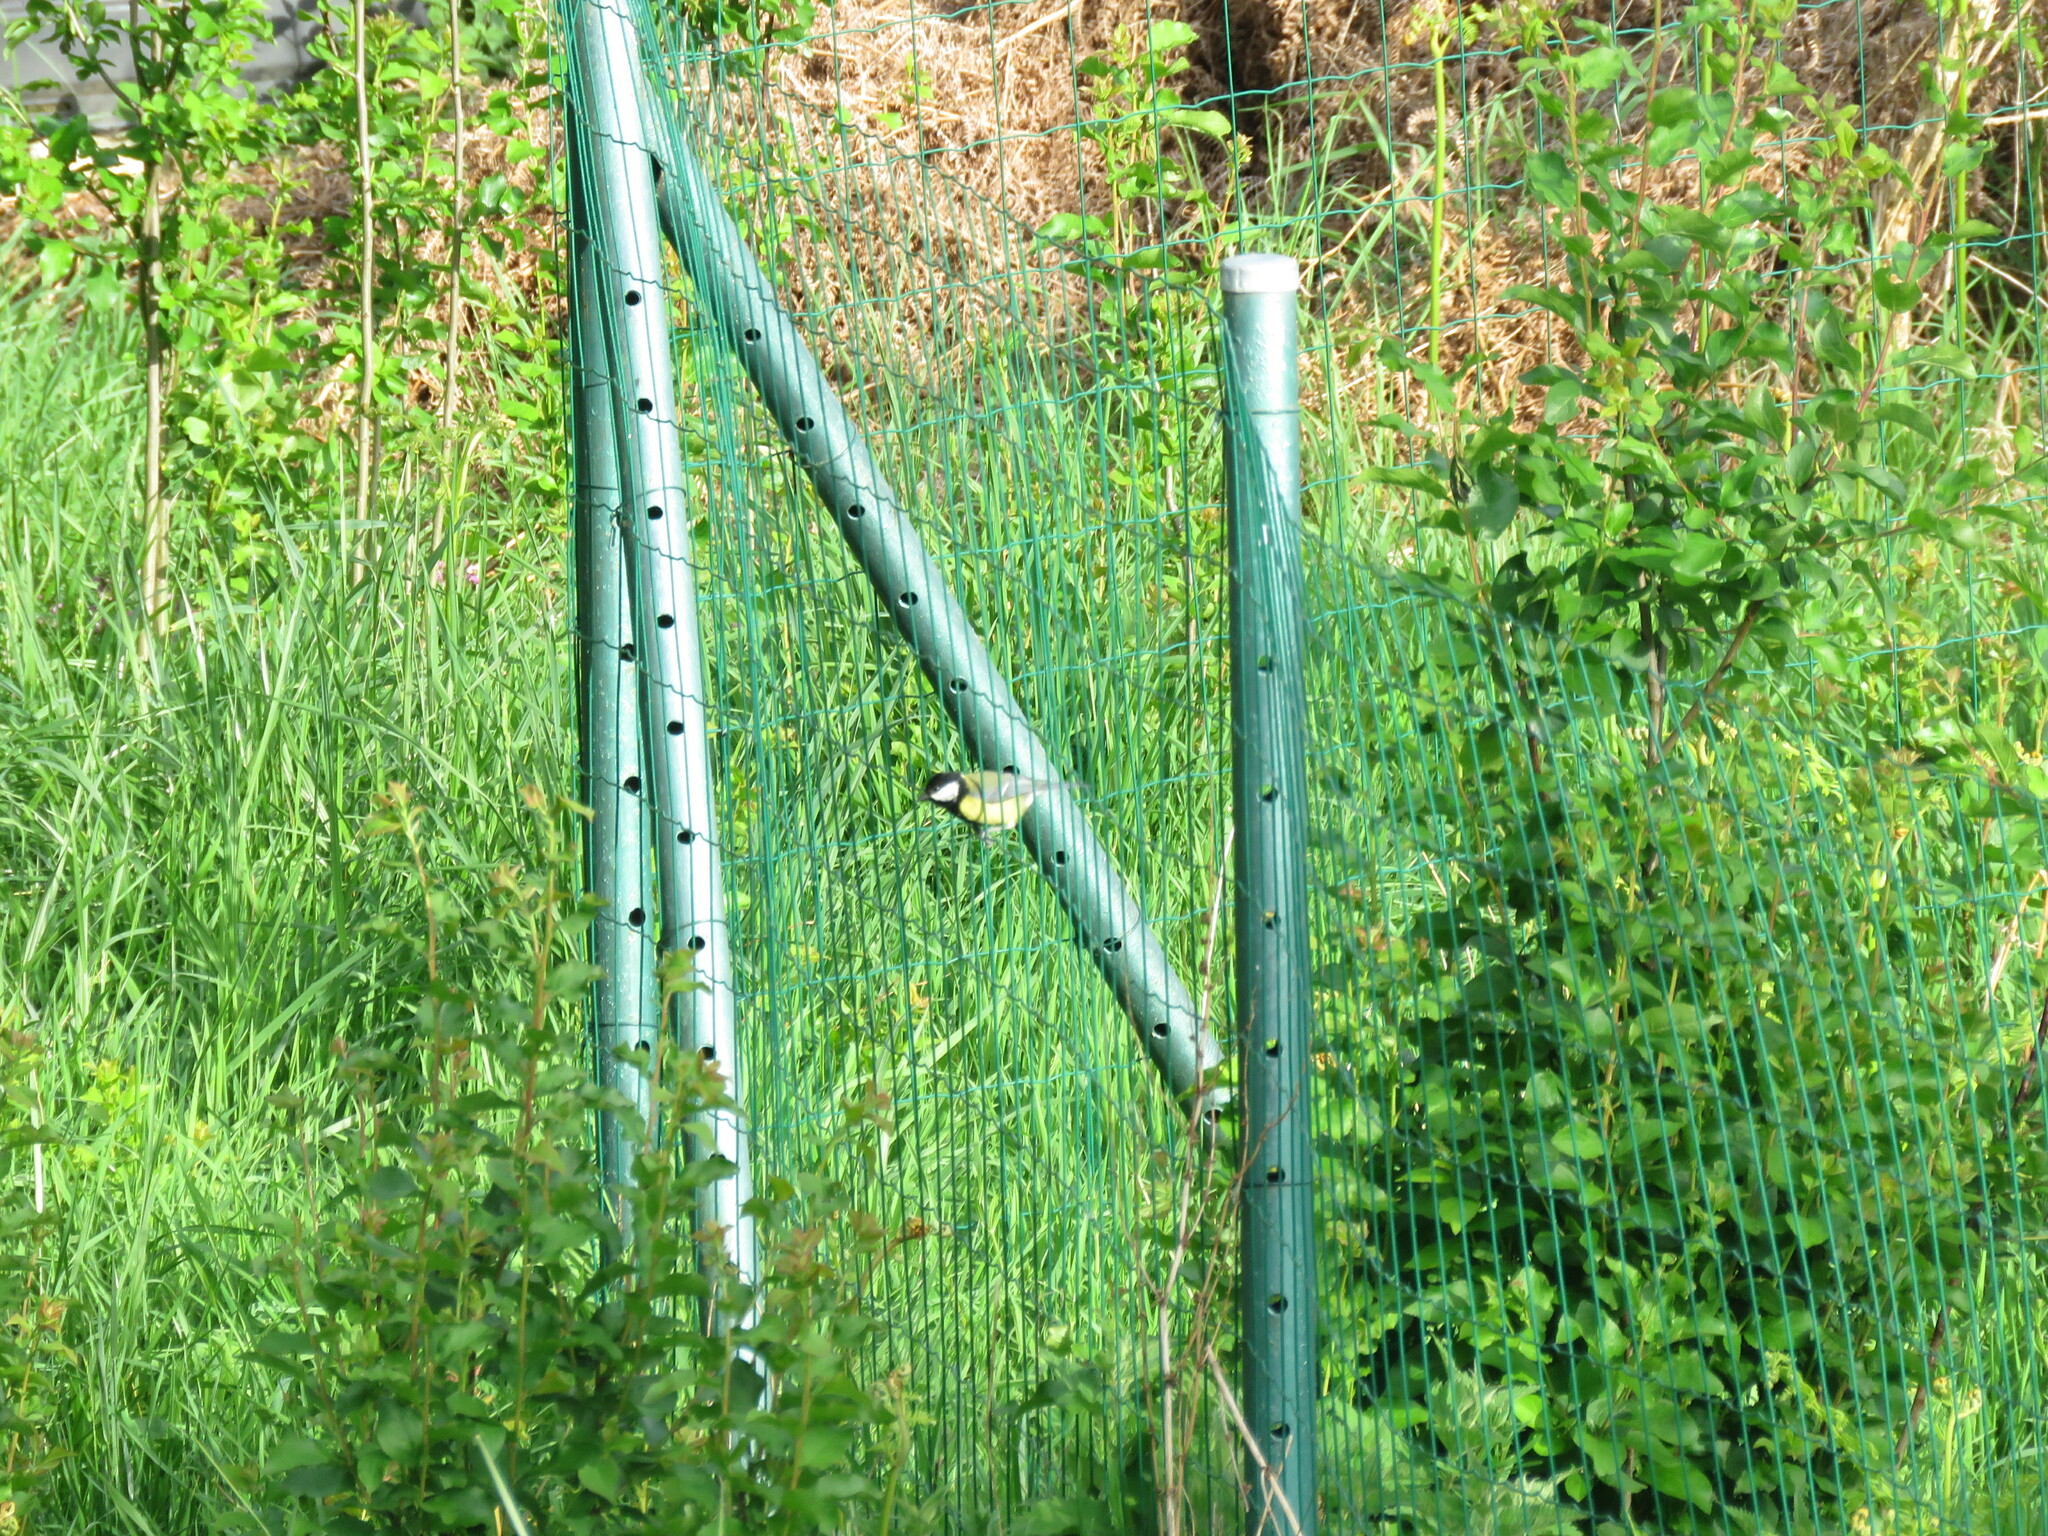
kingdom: Animalia
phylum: Chordata
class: Aves
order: Passeriformes
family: Paridae
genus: Parus
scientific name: Parus major
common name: Great tit
